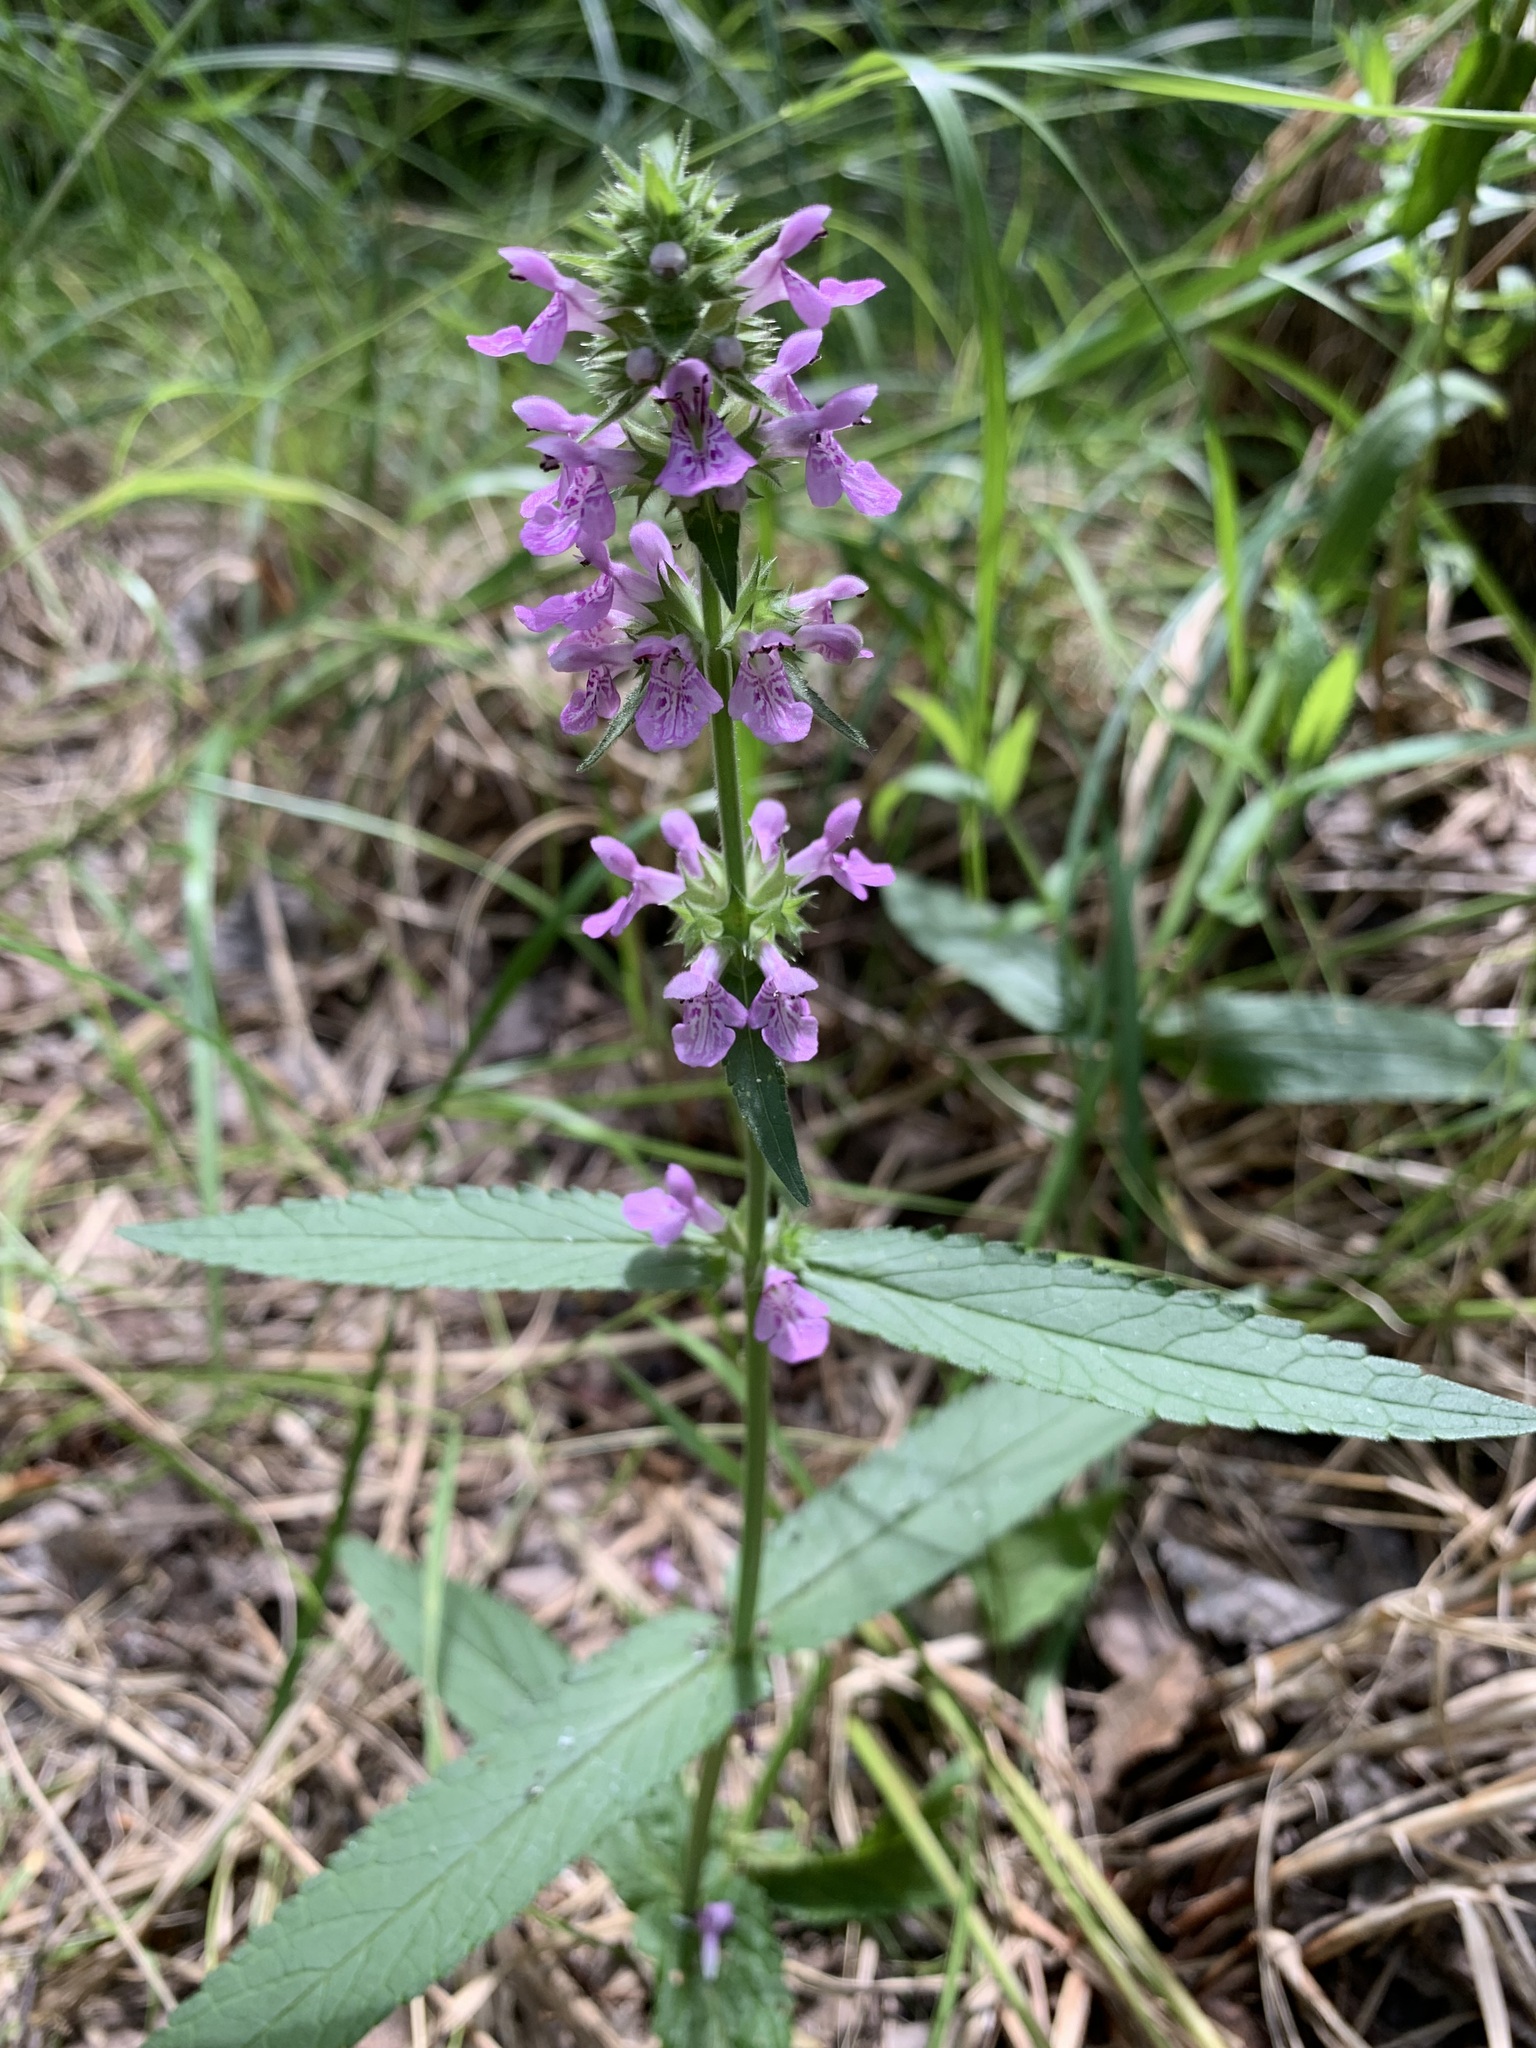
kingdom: Plantae
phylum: Tracheophyta
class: Magnoliopsida
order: Lamiales
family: Lamiaceae
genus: Stachys
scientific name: Stachys palustris
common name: Marsh woundwort
